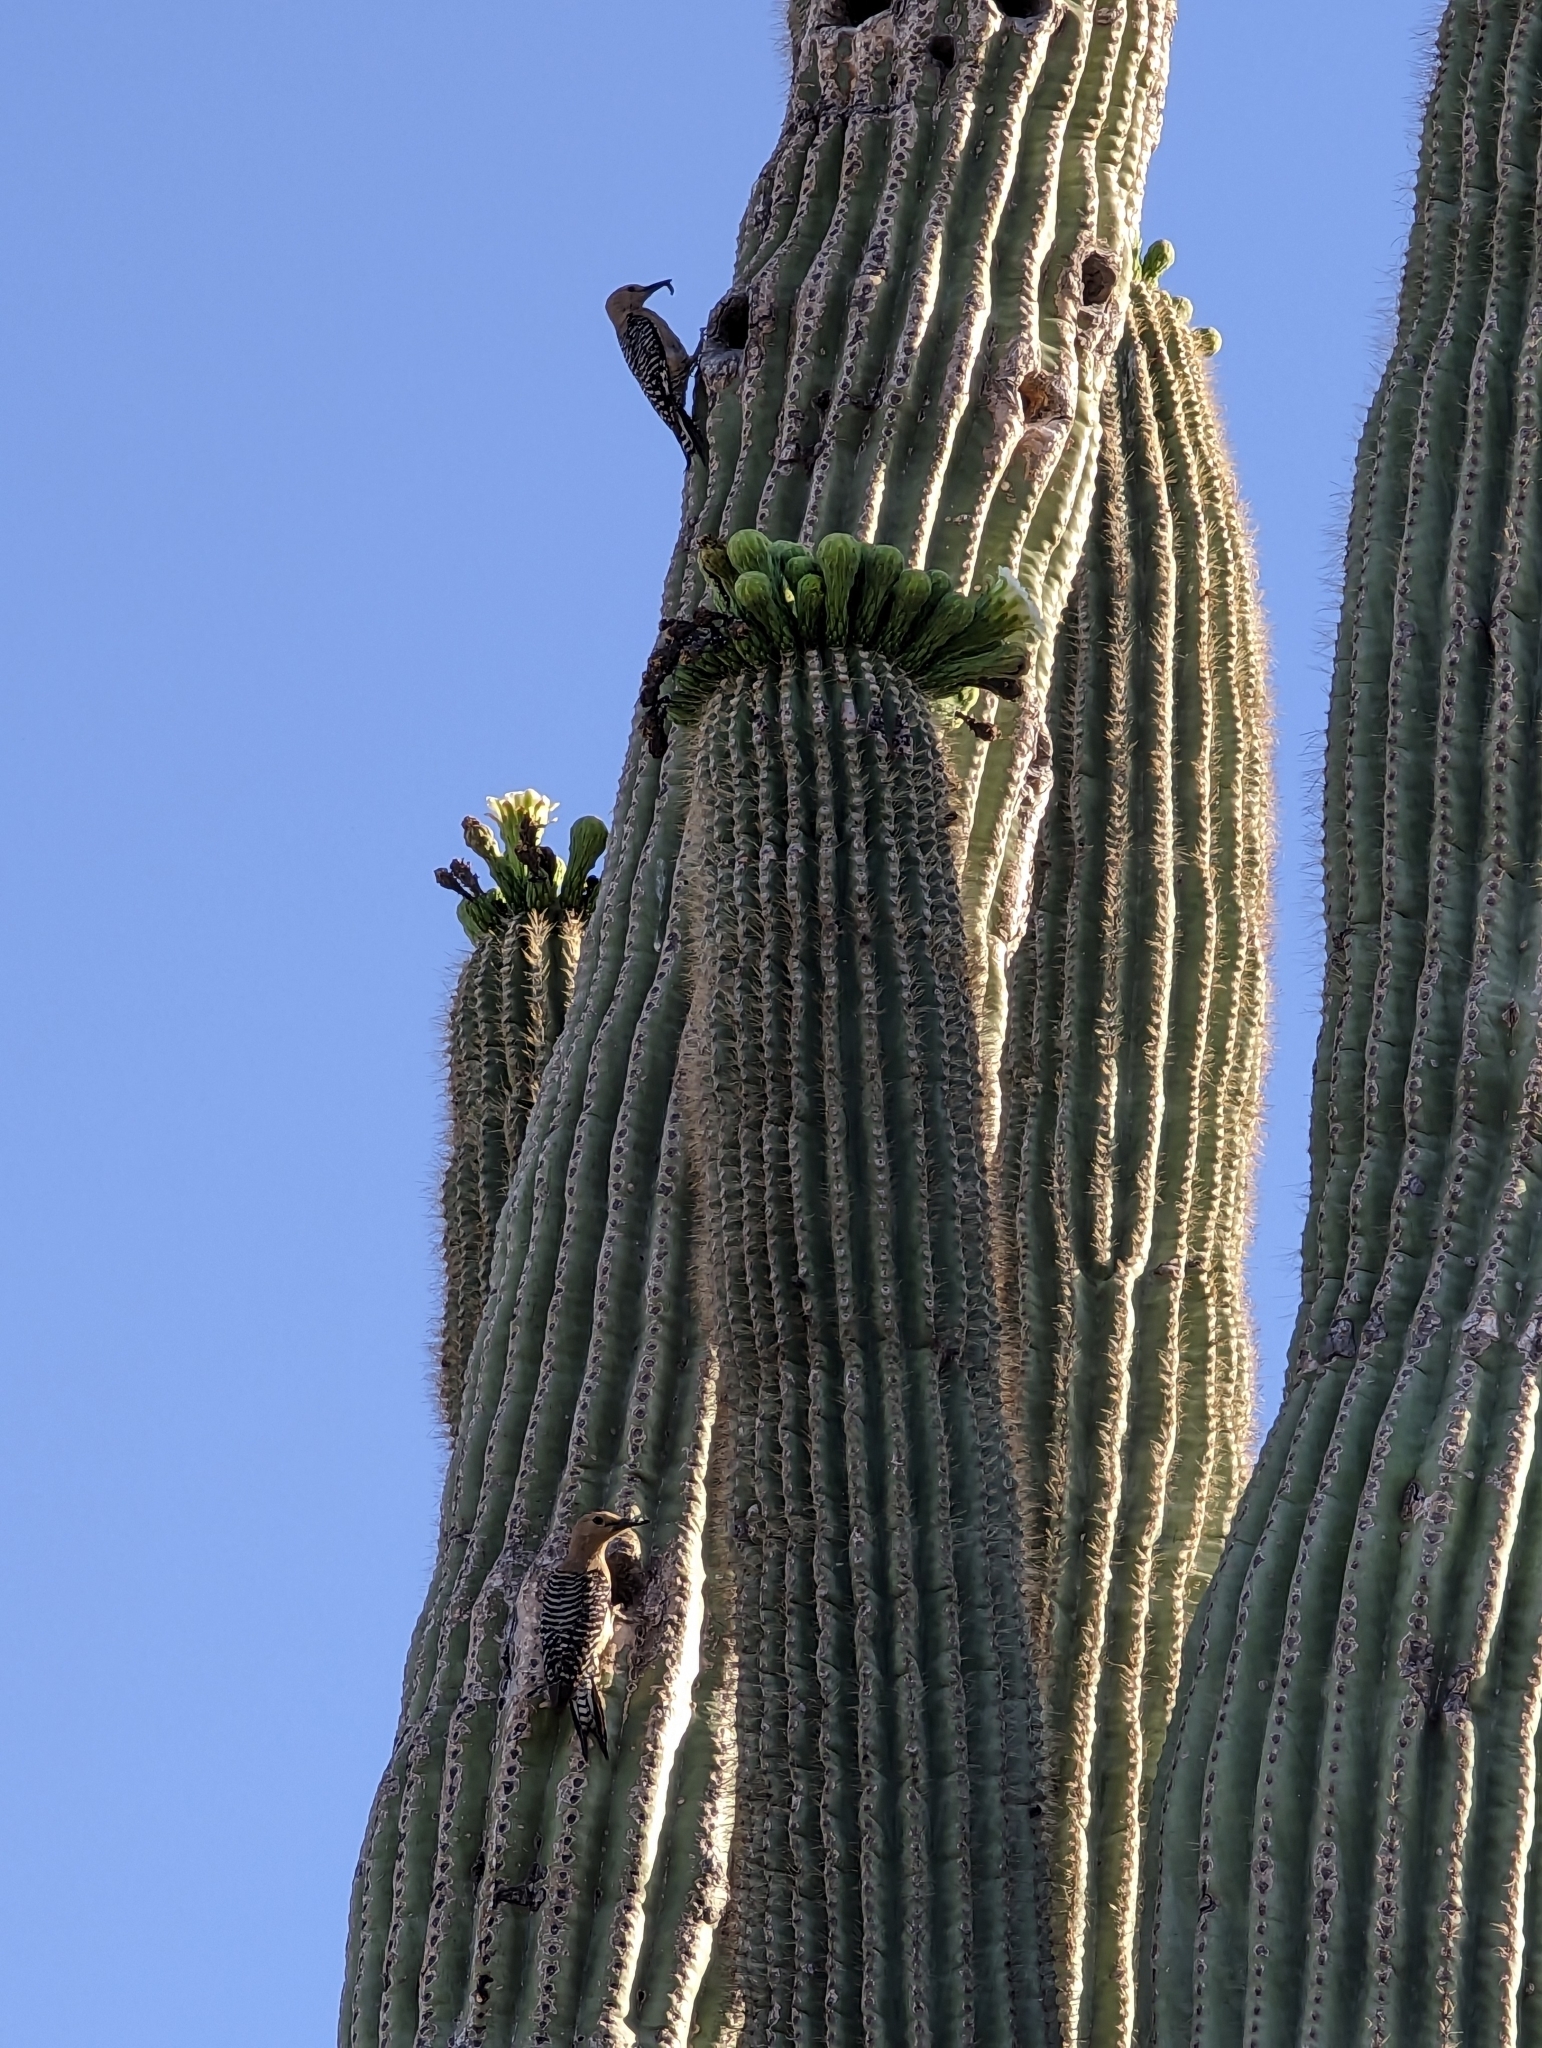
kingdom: Animalia
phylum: Chordata
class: Aves
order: Piciformes
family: Picidae
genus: Melanerpes
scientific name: Melanerpes uropygialis
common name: Gila woodpecker
